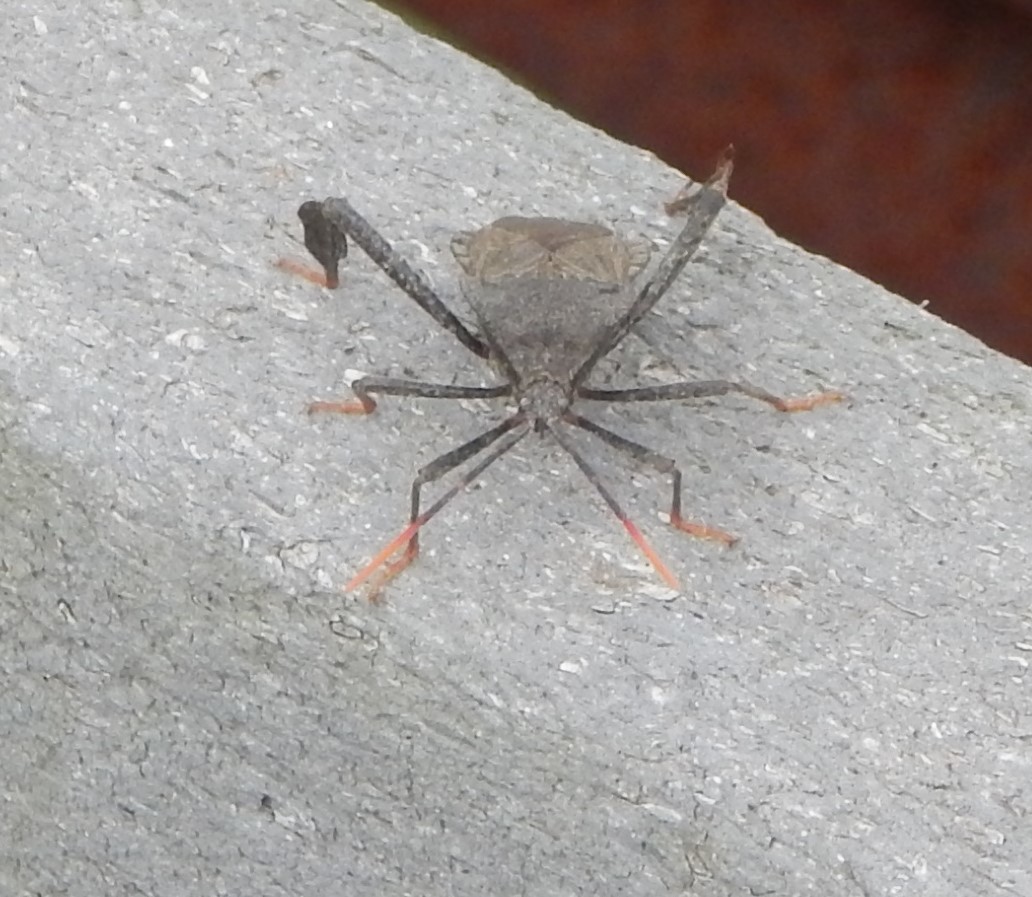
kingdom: Animalia
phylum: Arthropoda
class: Insecta
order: Hemiptera
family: Coreidae
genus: Acanthocephala
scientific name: Acanthocephala terminalis
